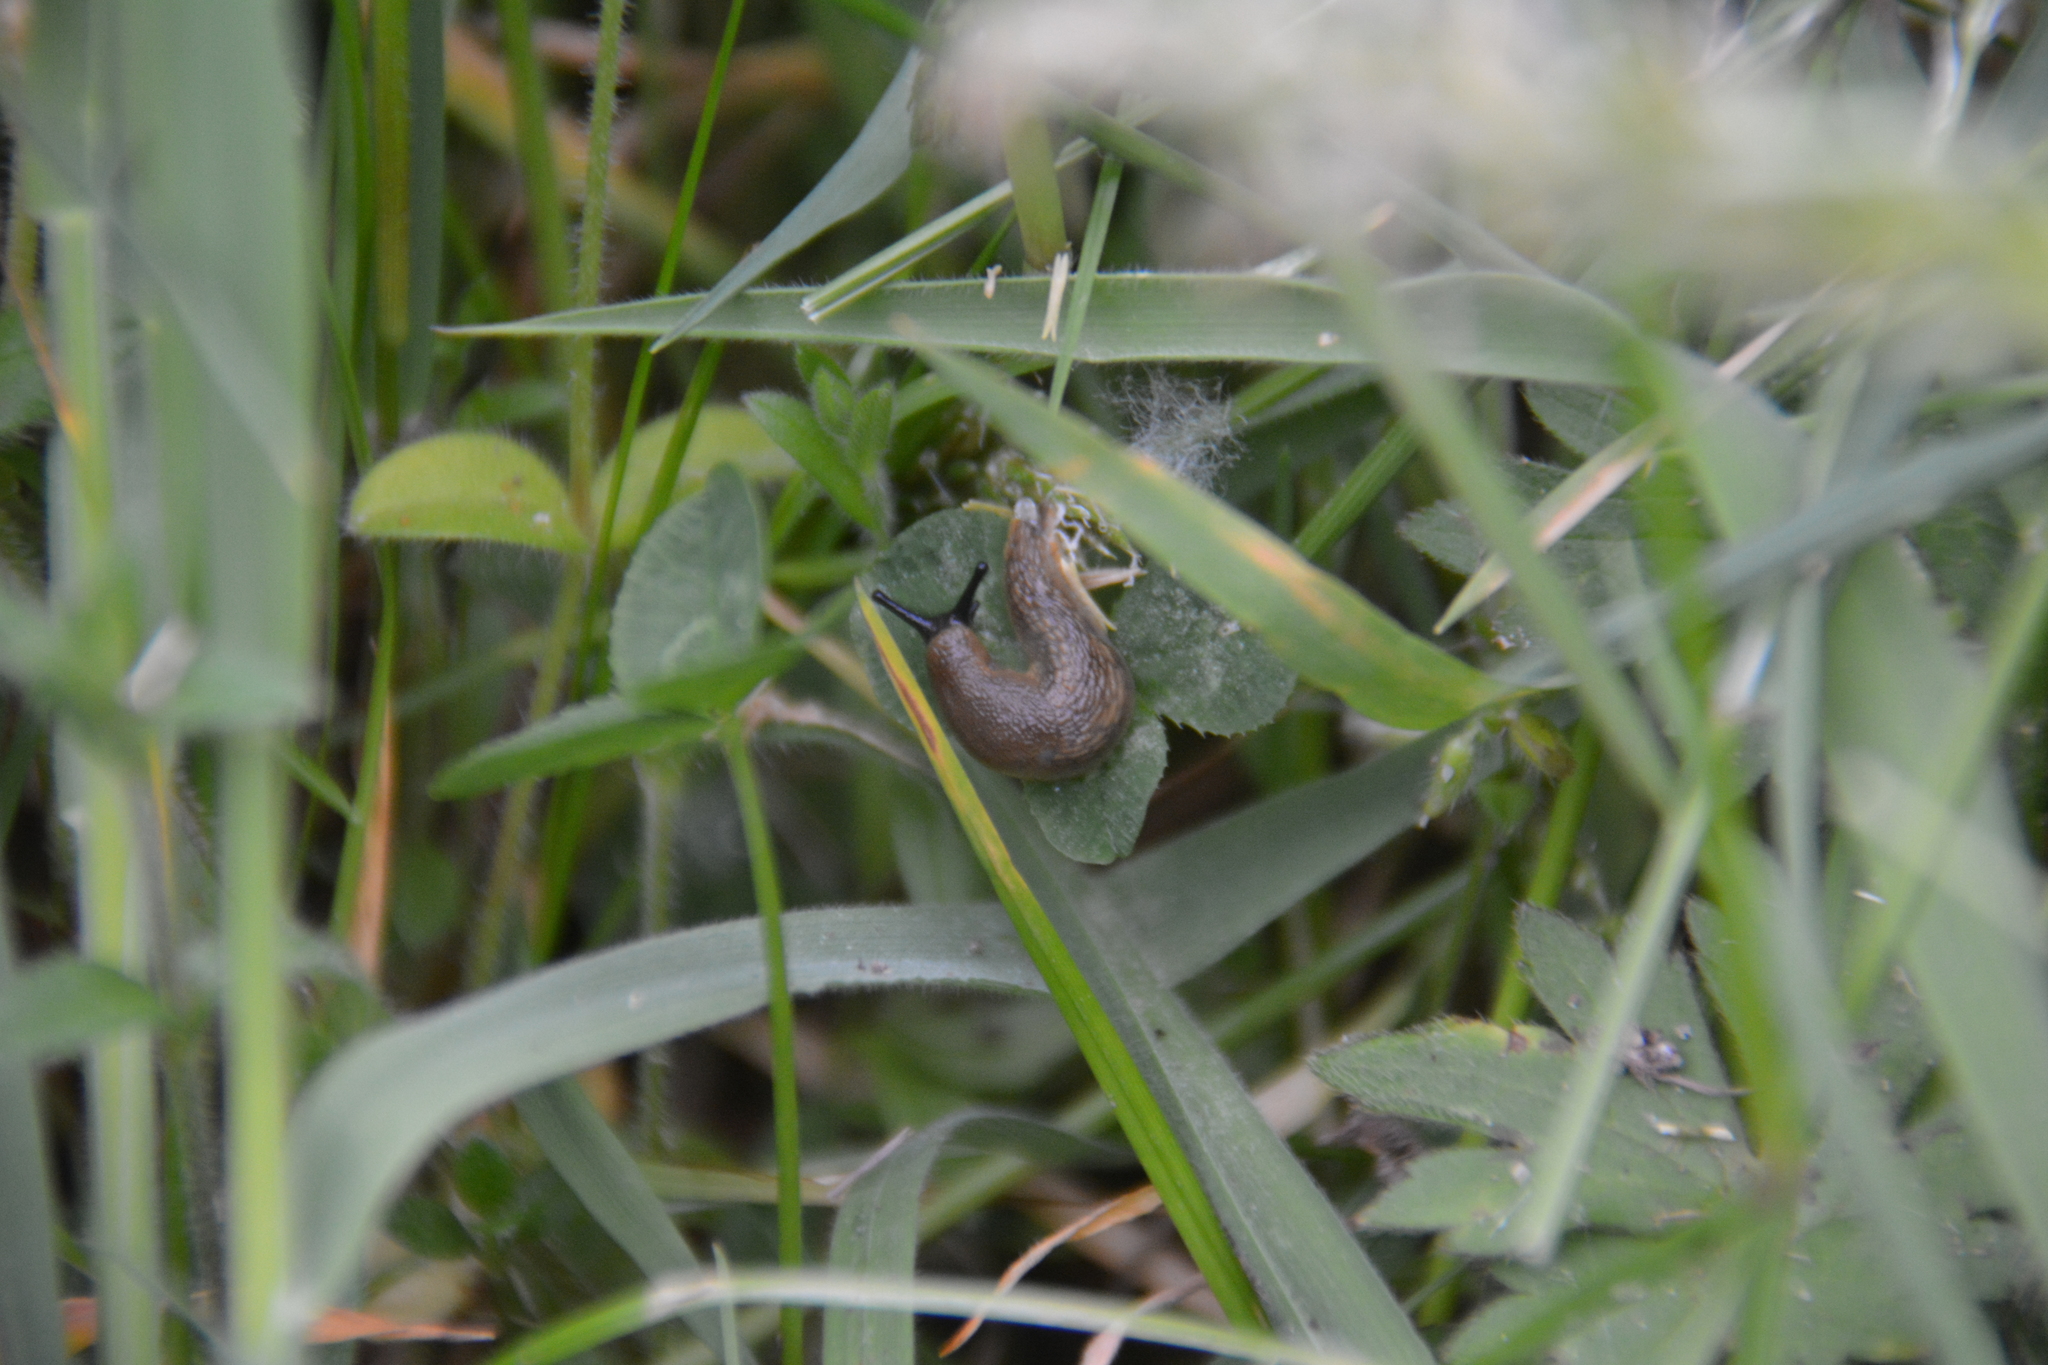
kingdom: Animalia
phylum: Mollusca
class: Gastropoda
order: Stylommatophora
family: Arionidae
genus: Arion
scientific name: Arion
